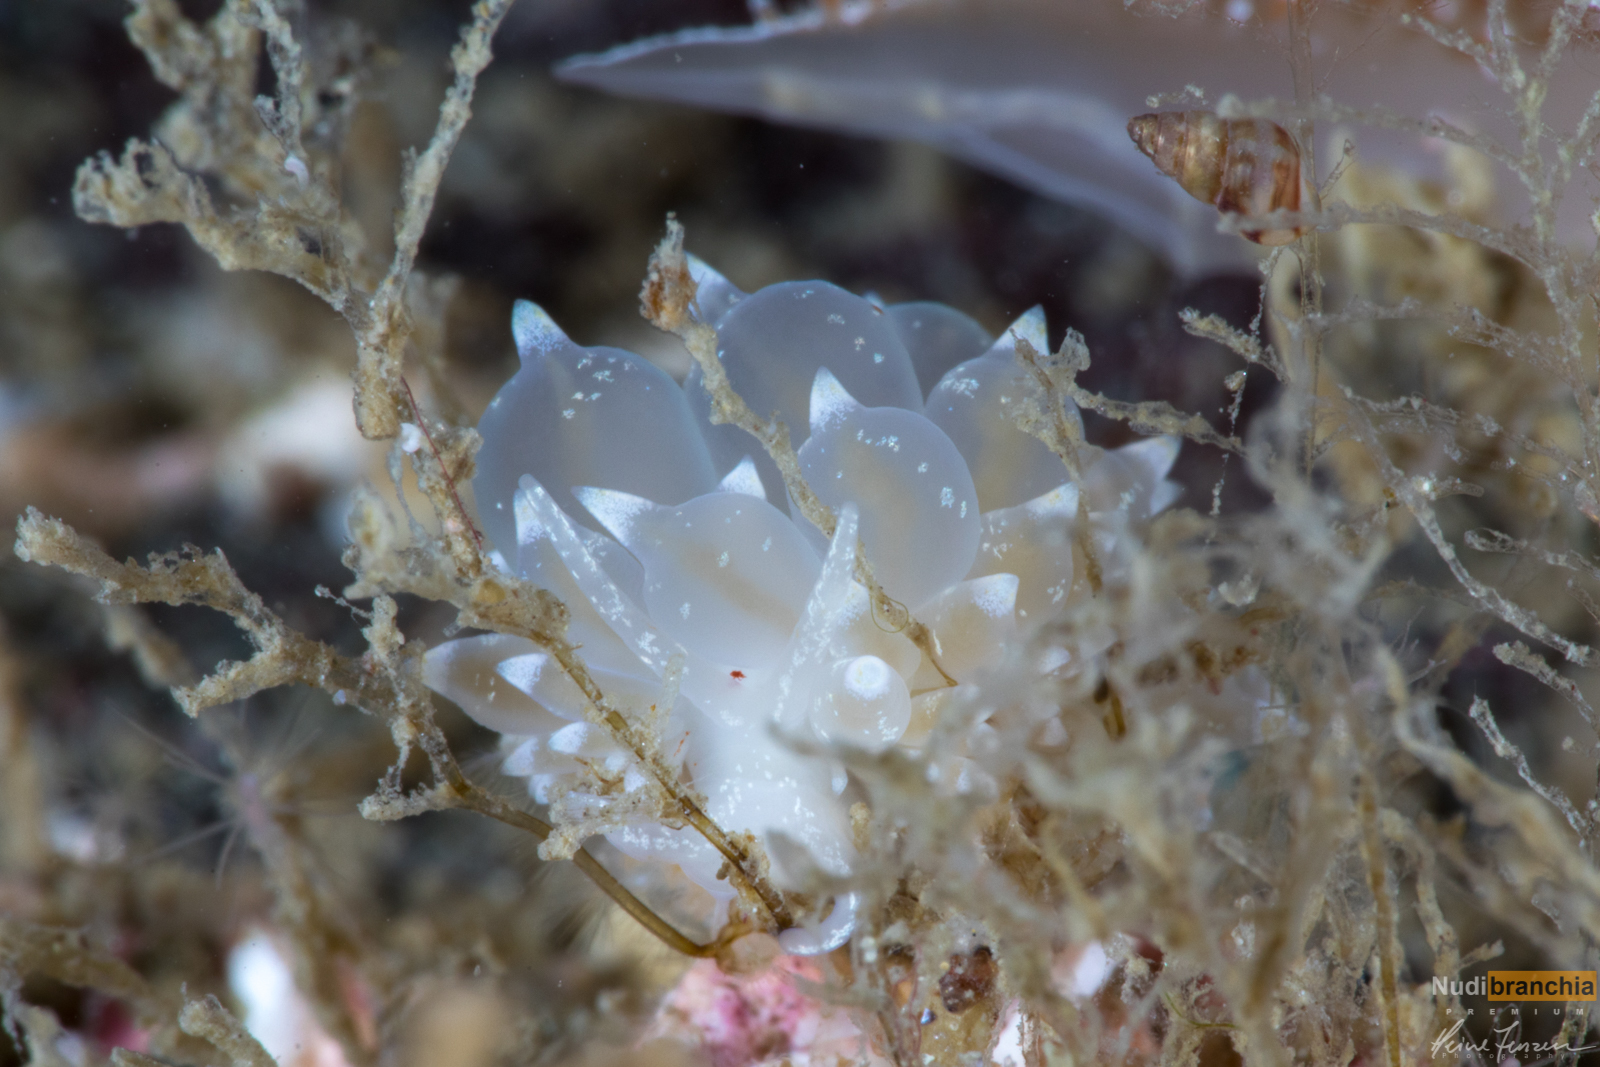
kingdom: Animalia
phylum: Mollusca
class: Gastropoda
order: Nudibranchia
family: Eubranchidae
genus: Amphorina
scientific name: Amphorina pallida
